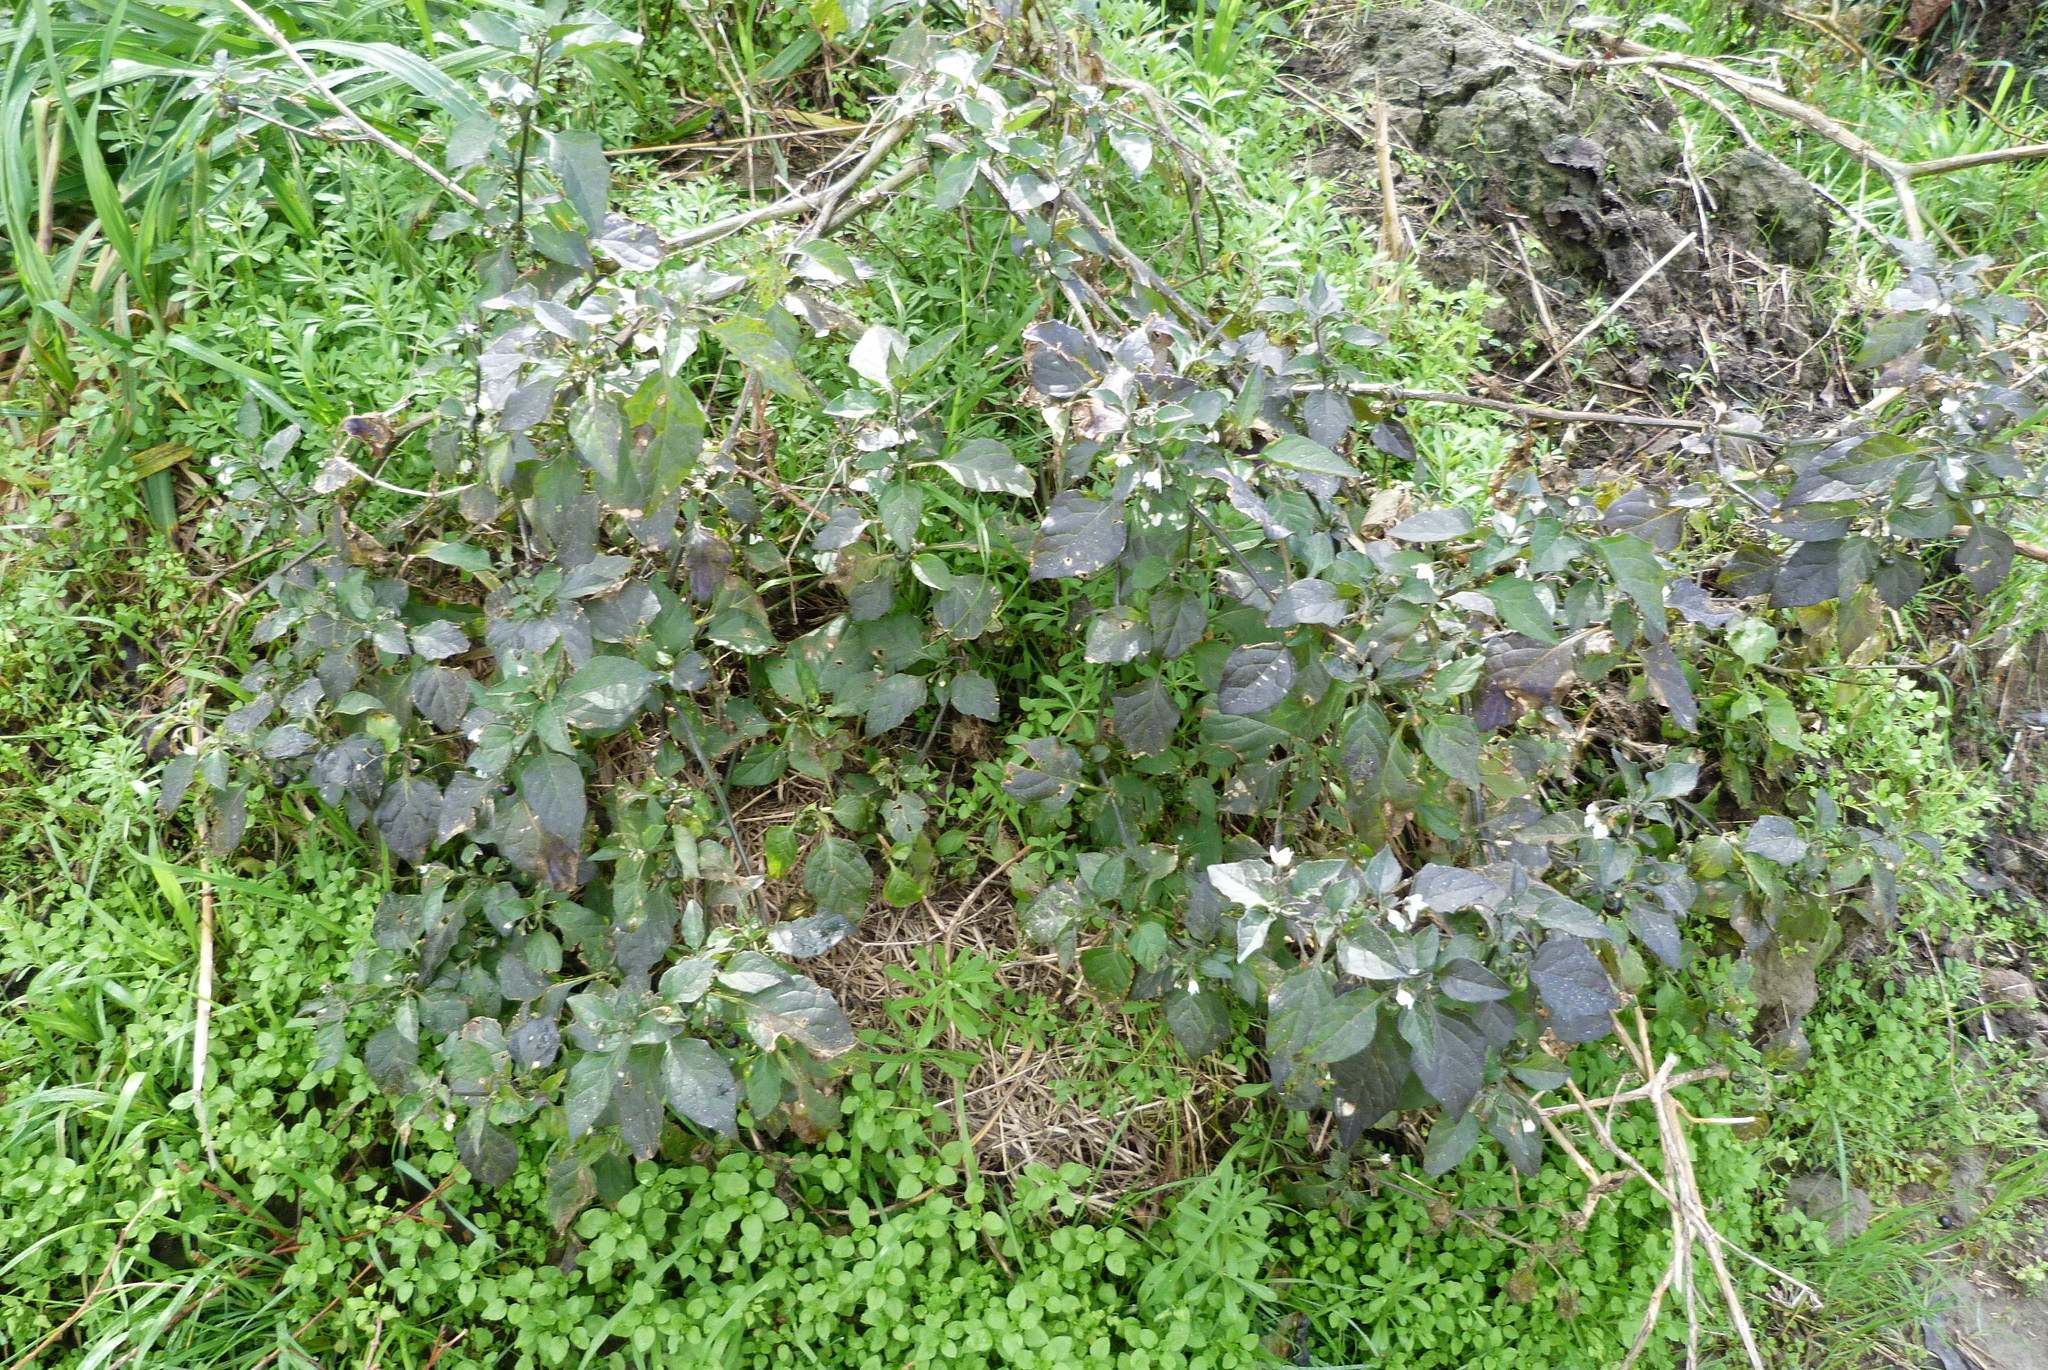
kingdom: Plantae
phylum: Tracheophyta
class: Magnoliopsida
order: Solanales
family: Solanaceae
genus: Solanum
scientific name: Solanum nigrum
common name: Black nightshade
